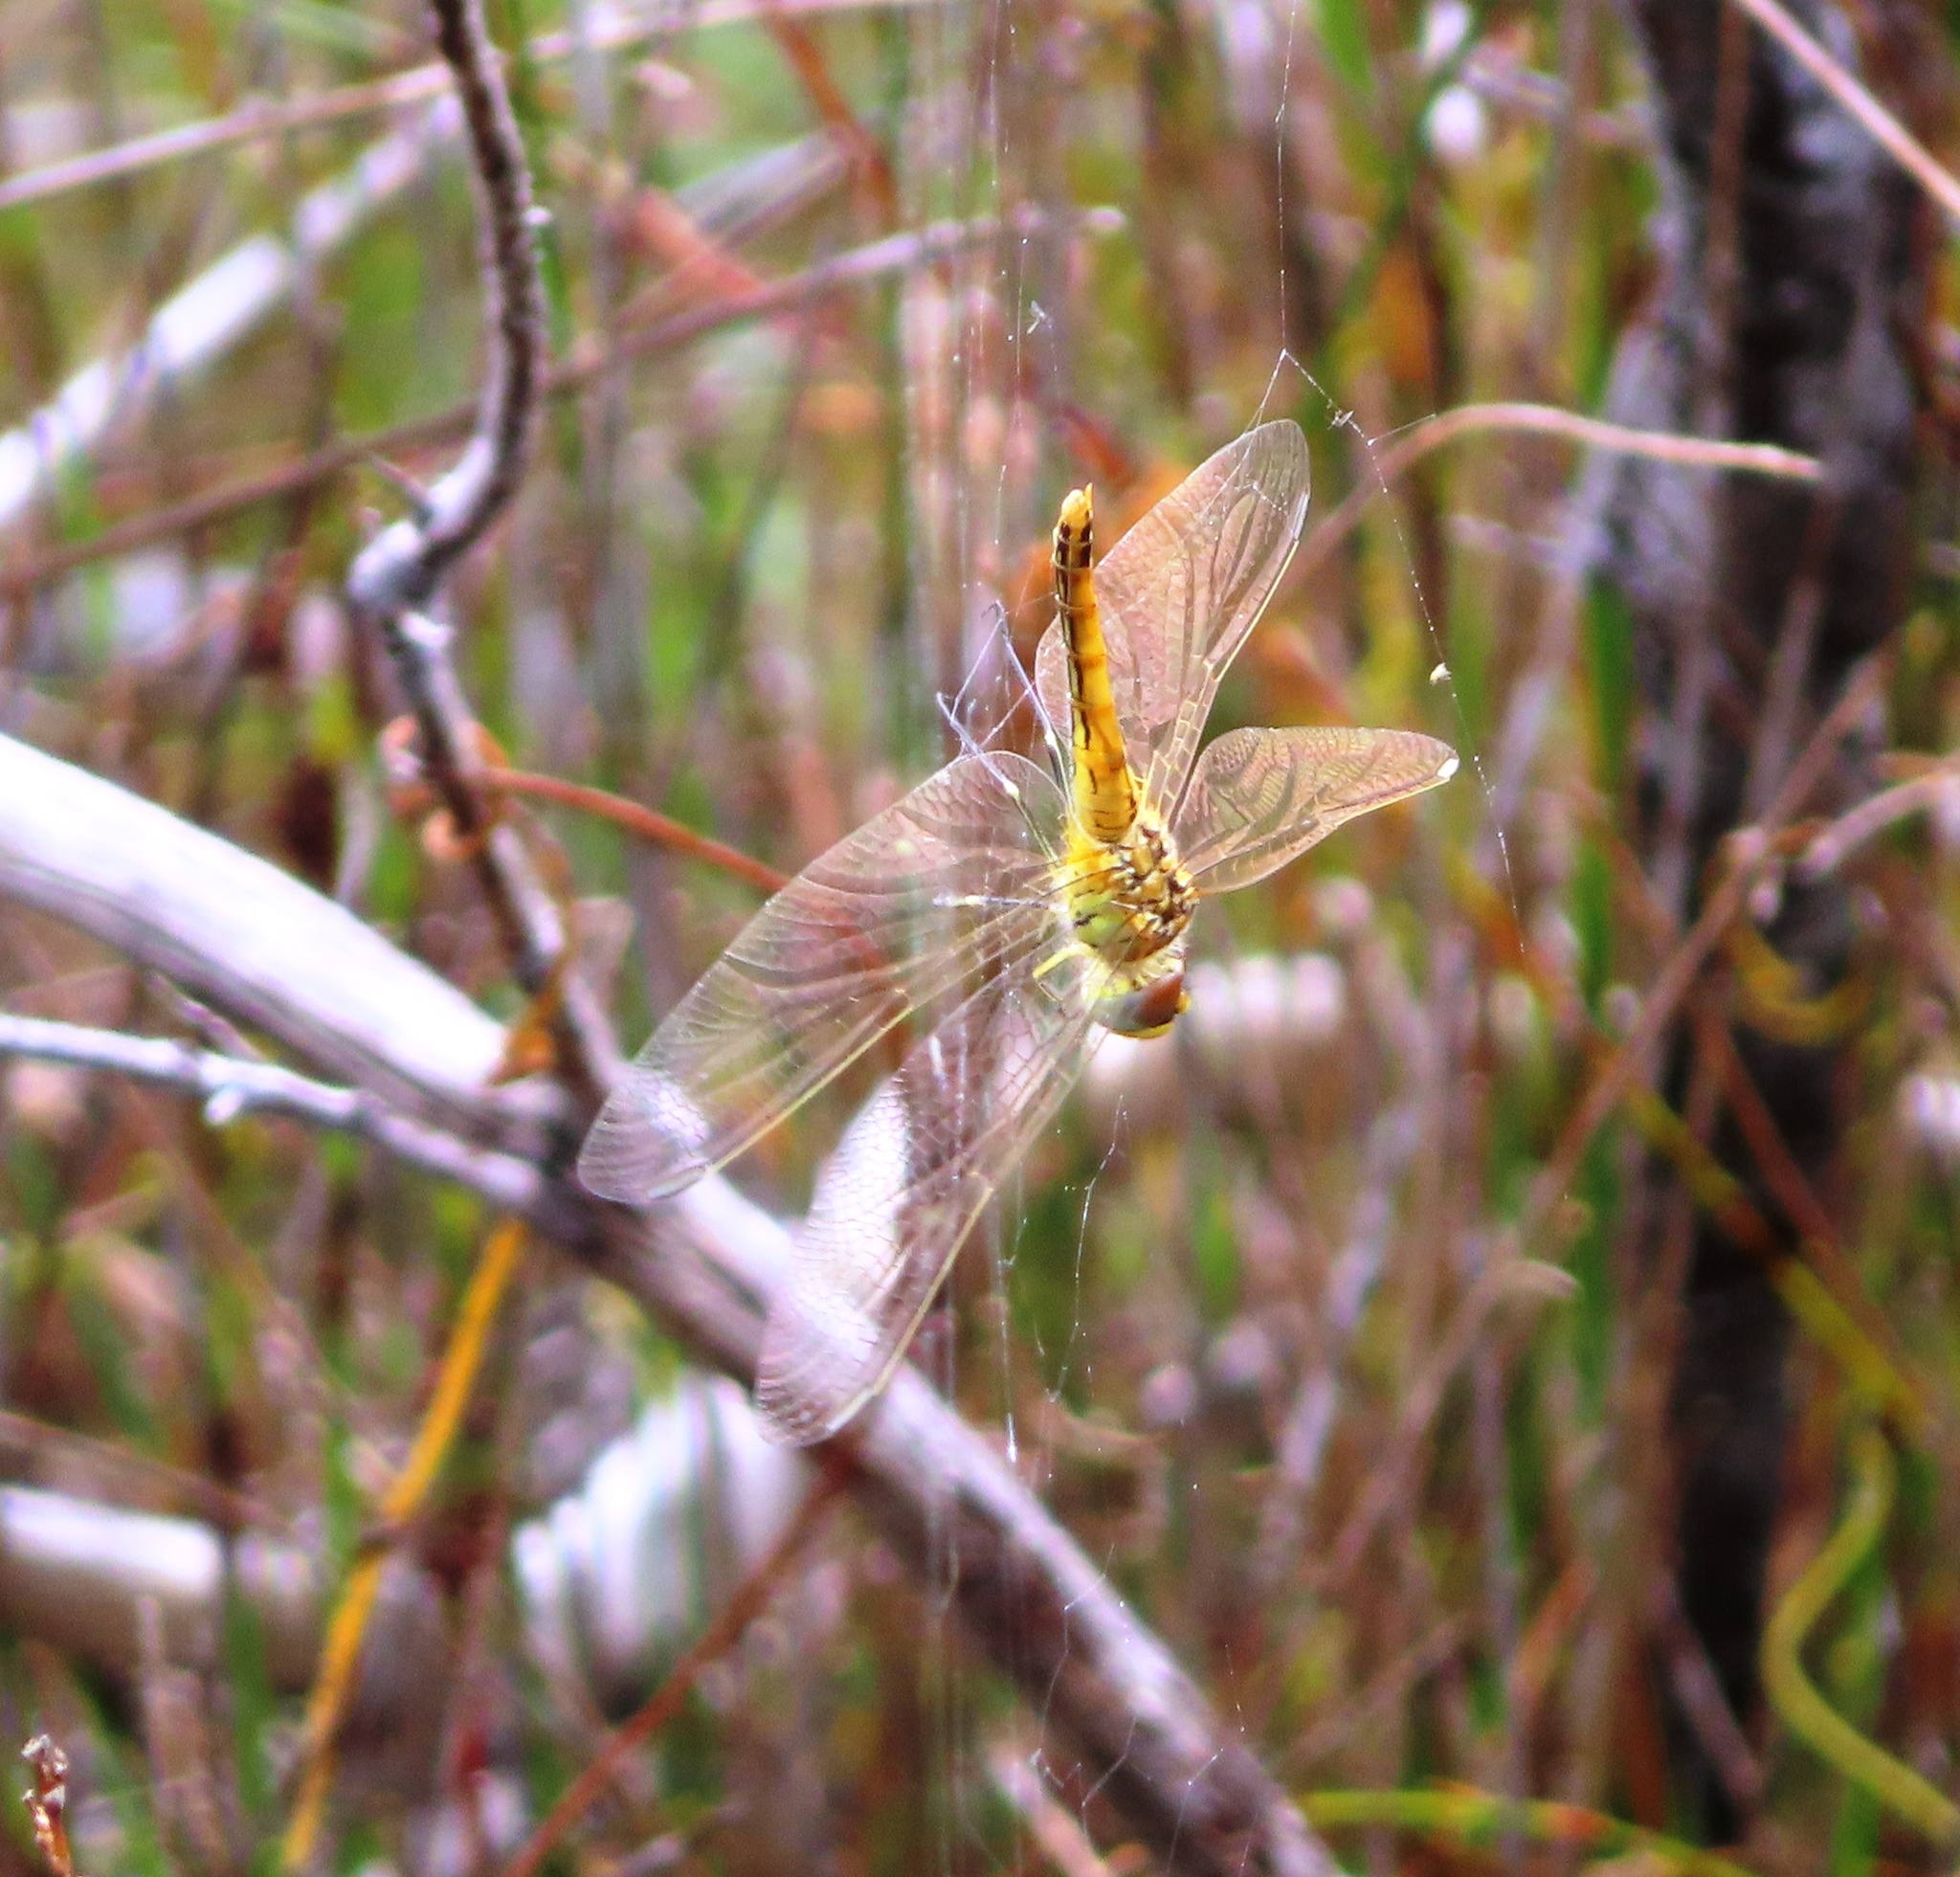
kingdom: Animalia
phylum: Arthropoda
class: Insecta
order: Odonata
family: Libellulidae
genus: Sympetrum
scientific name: Sympetrum fonscolombii
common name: Red-veined darter
